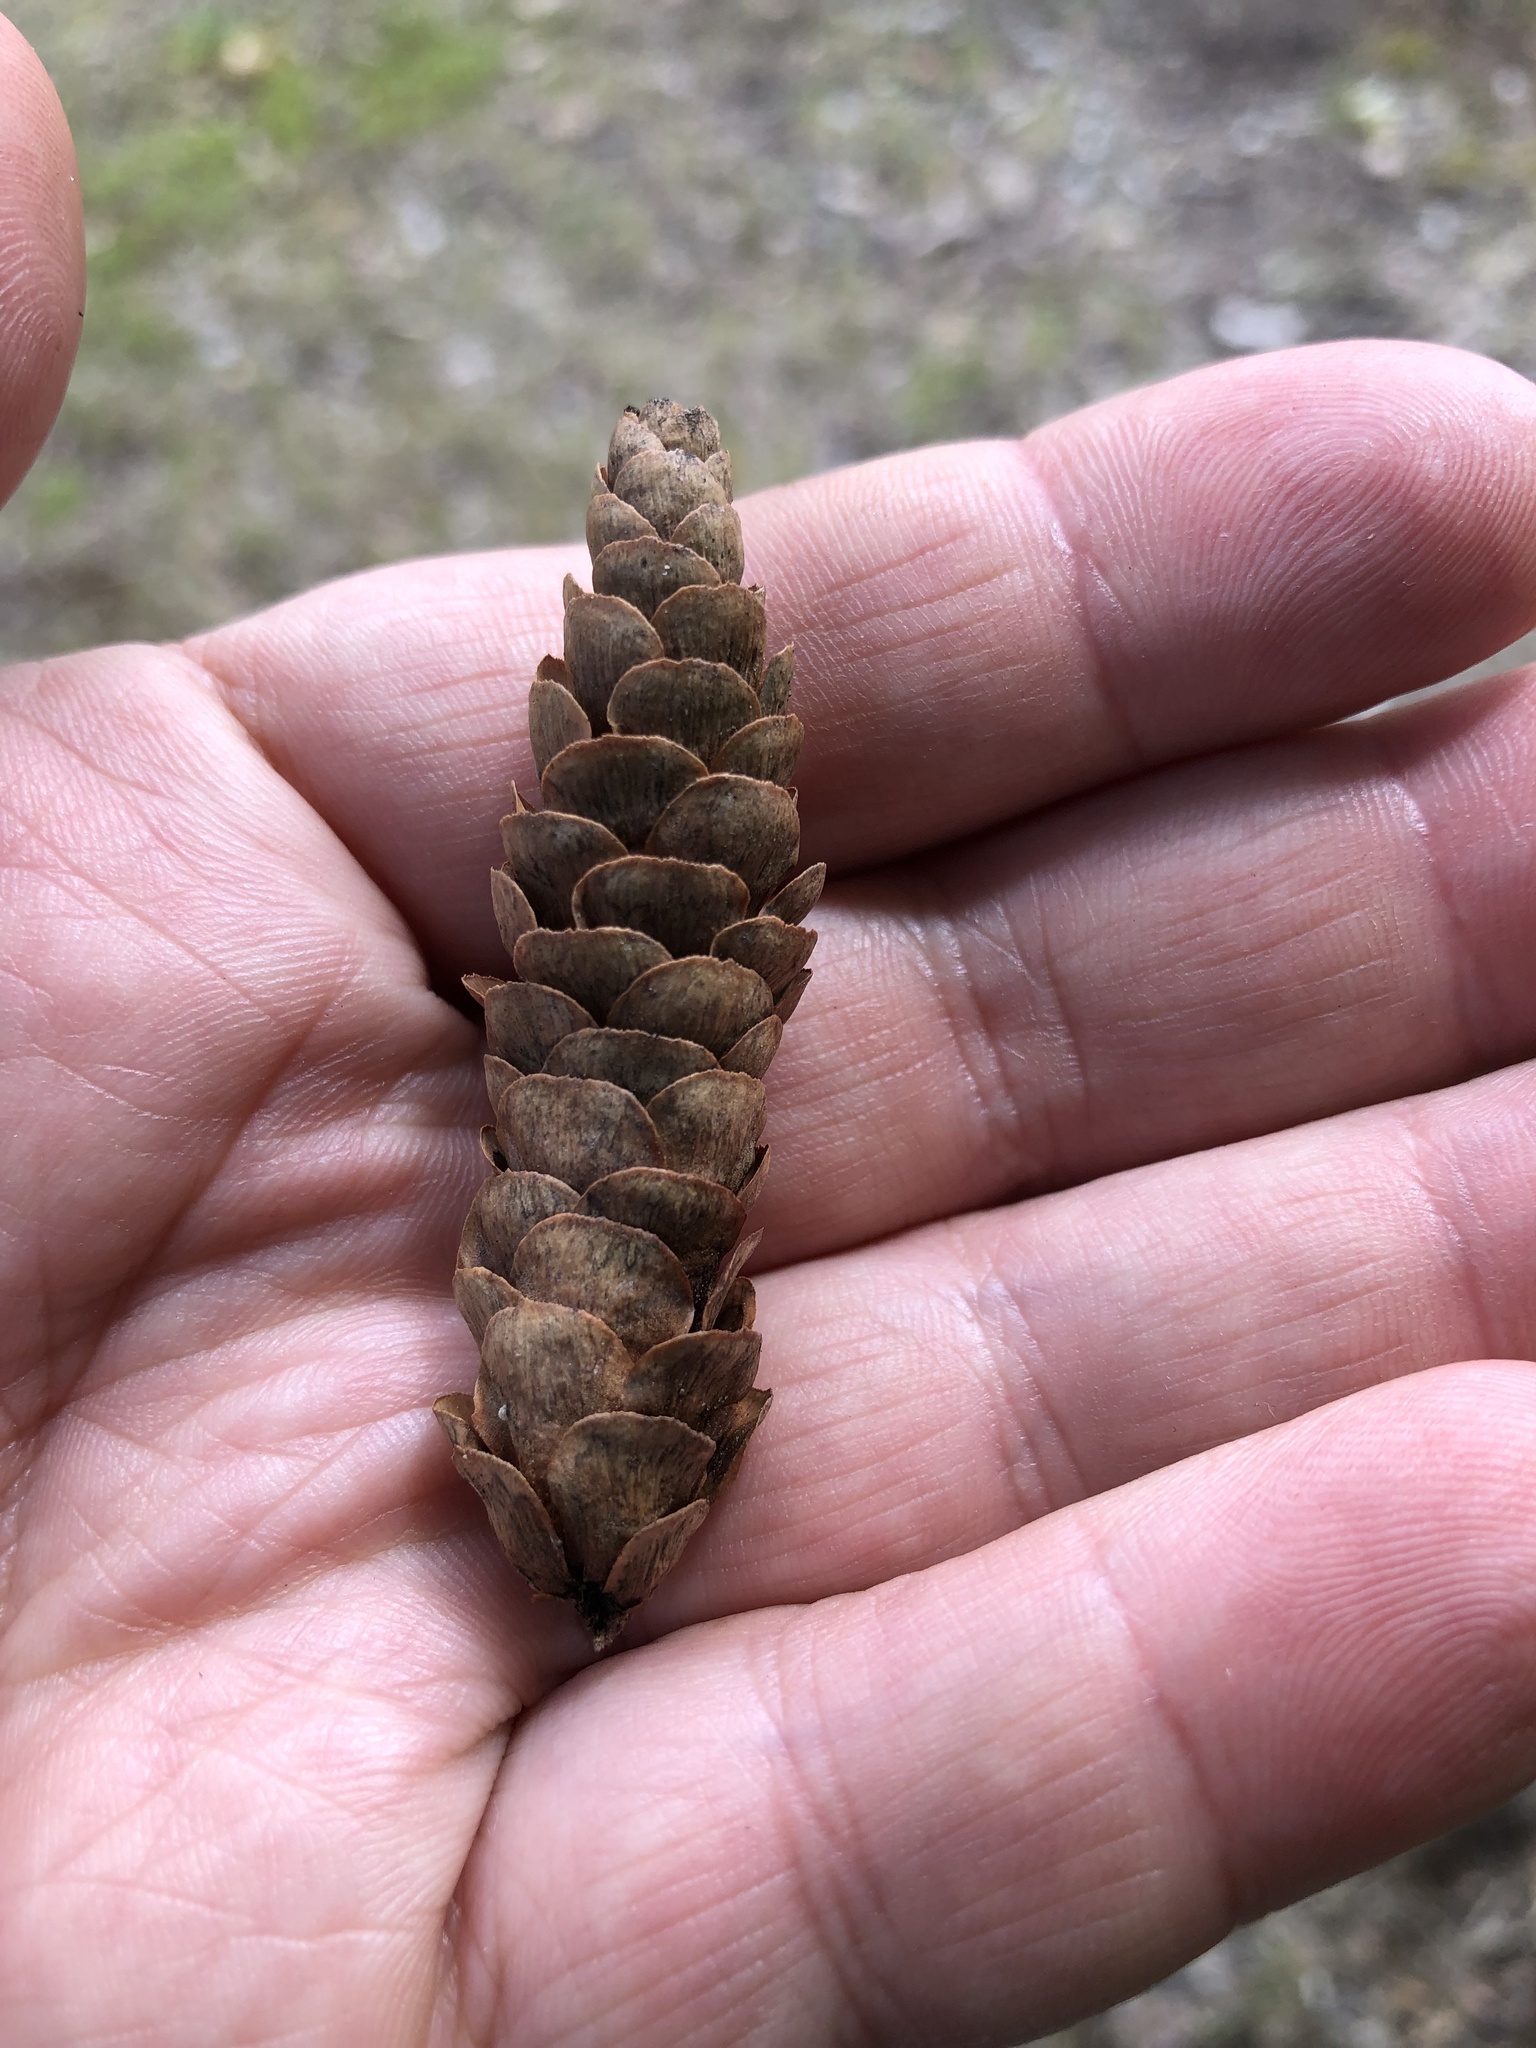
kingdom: Plantae
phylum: Tracheophyta
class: Pinopsida
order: Pinales
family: Pinaceae
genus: Picea
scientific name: Picea glauca
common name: White spruce
